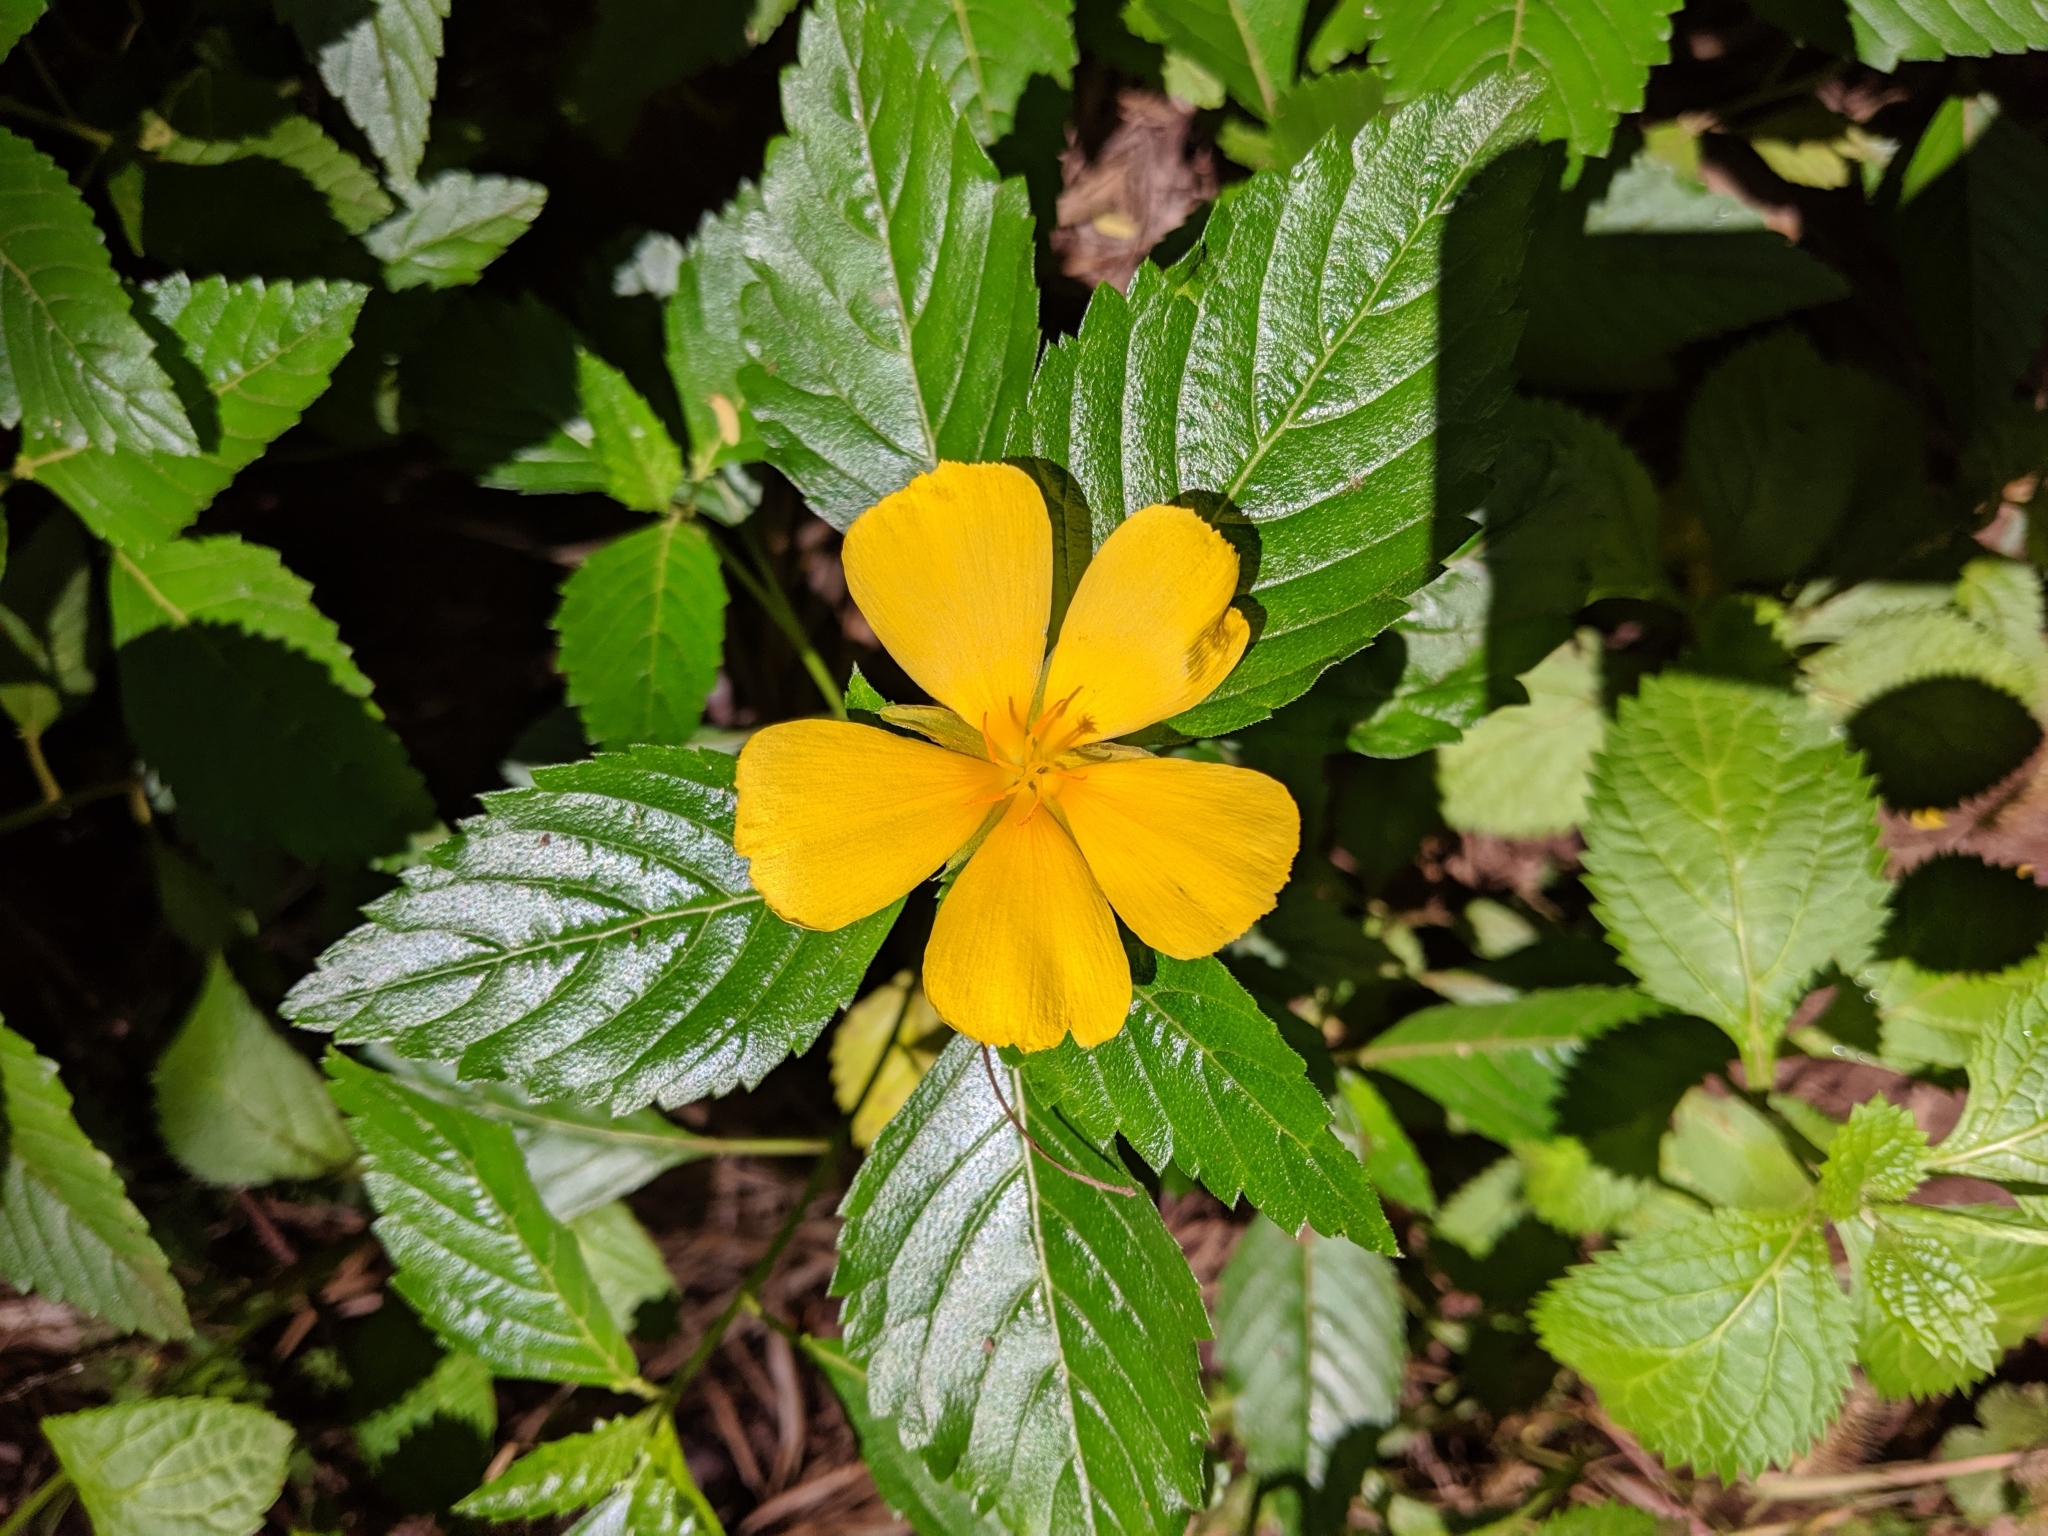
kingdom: Plantae
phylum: Tracheophyta
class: Magnoliopsida
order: Malpighiales
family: Turneraceae
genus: Turnera
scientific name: Turnera ulmifolia
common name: Ramgoat dashalong
